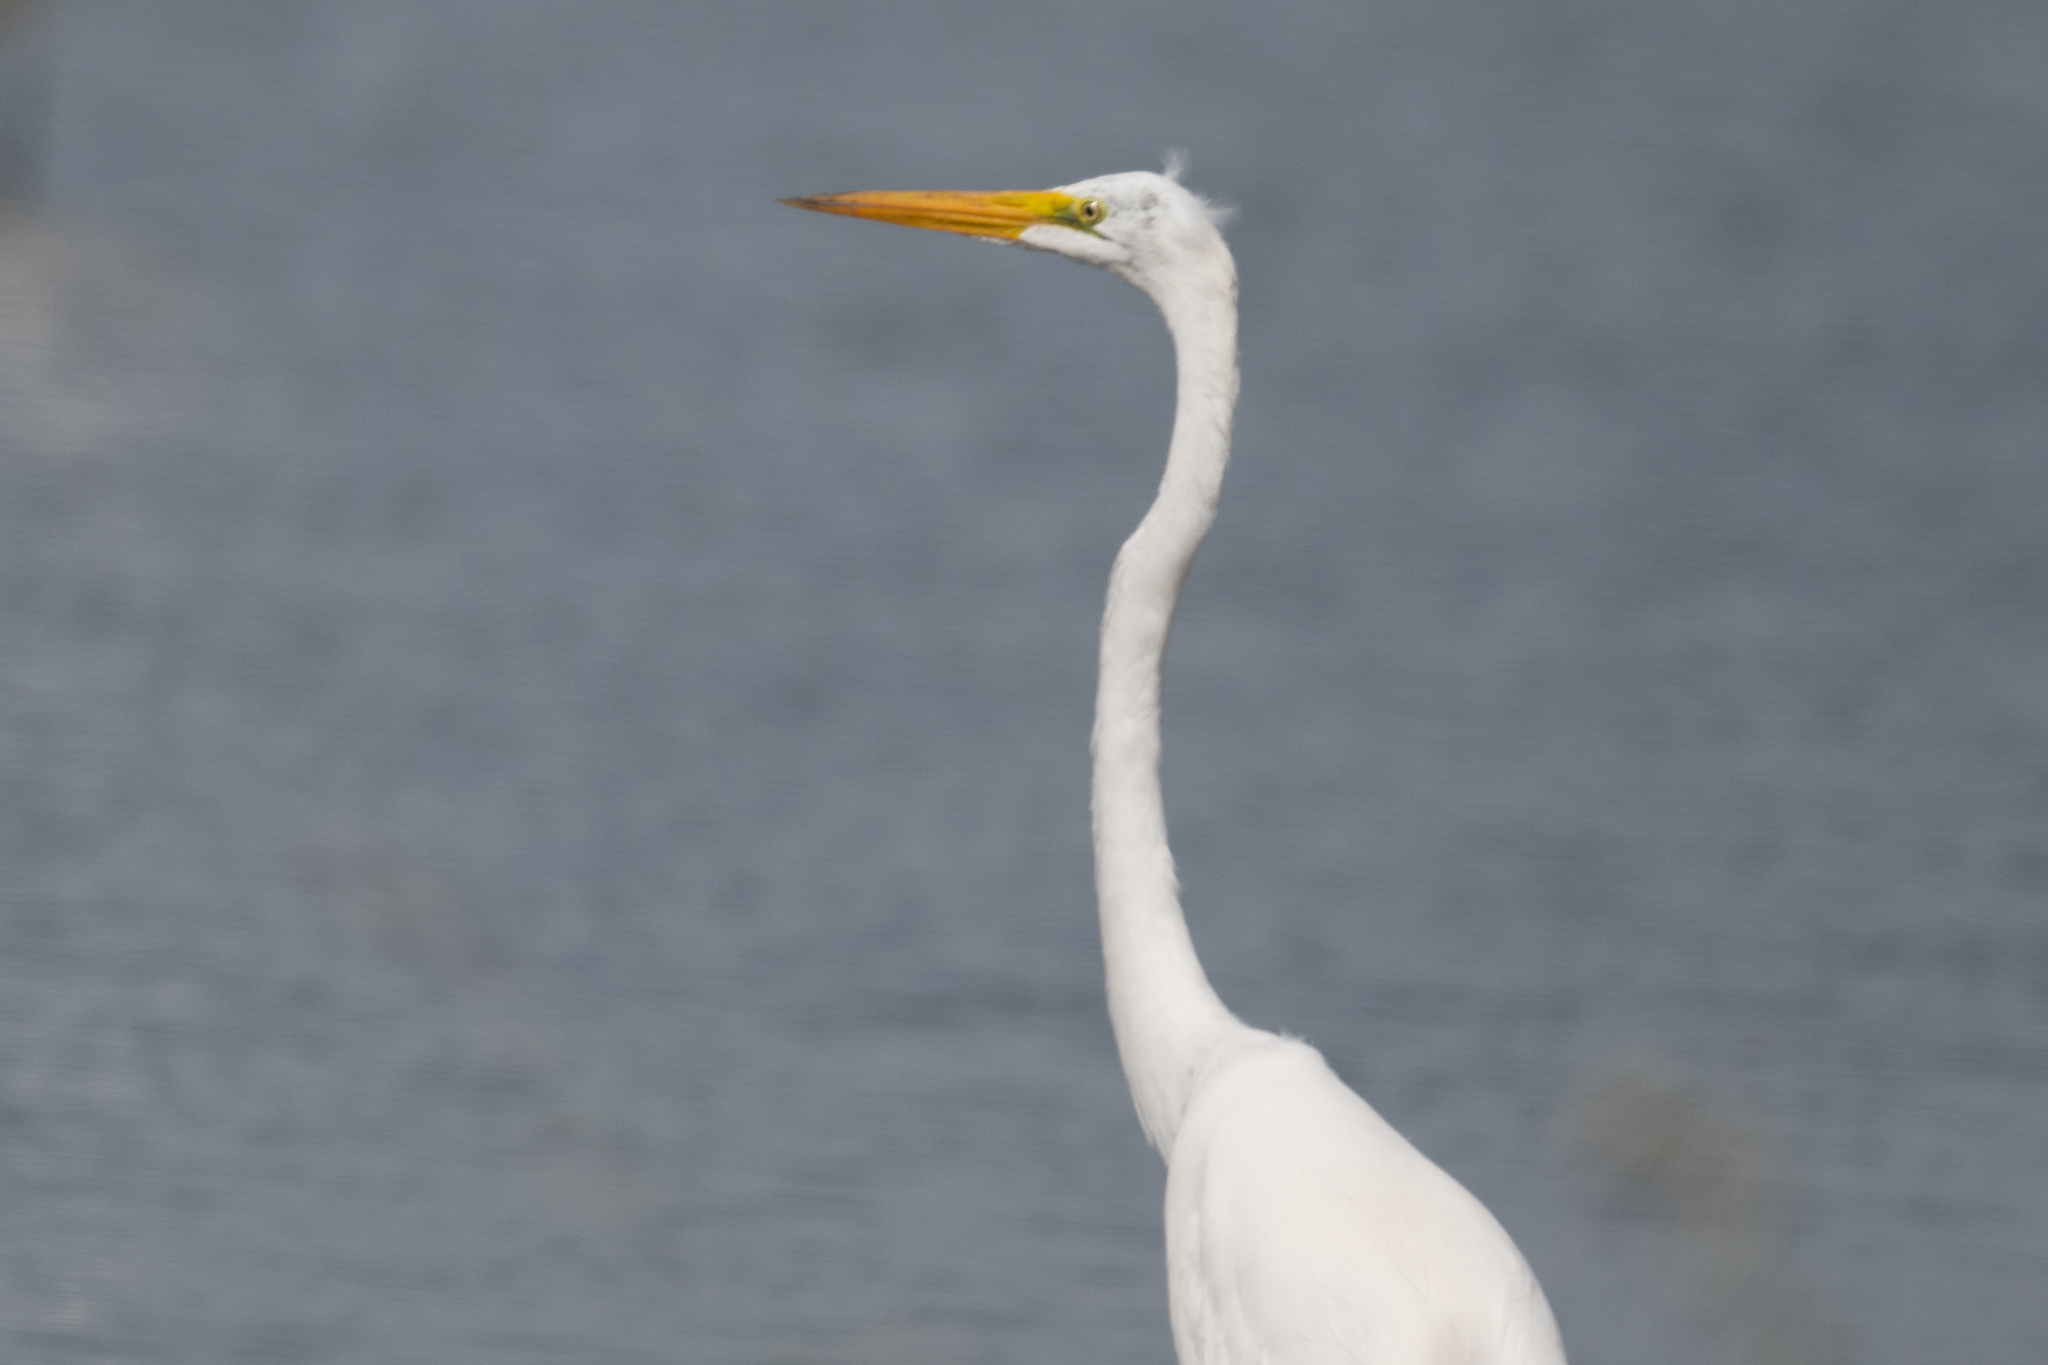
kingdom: Animalia
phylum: Chordata
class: Aves
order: Pelecaniformes
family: Ardeidae
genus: Ardea
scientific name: Ardea alba
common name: Great egret
